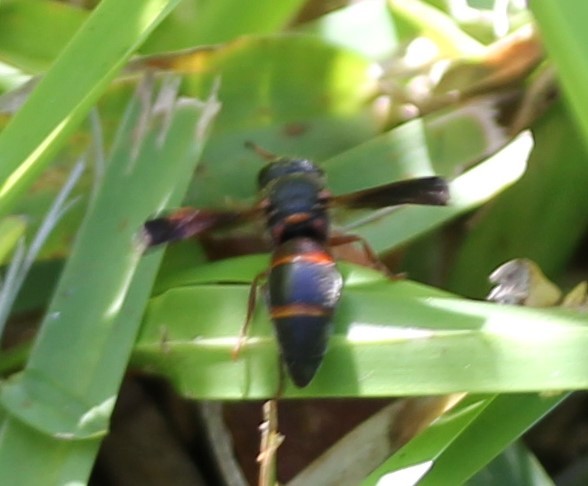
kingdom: Animalia
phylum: Arthropoda
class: Insecta
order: Hymenoptera
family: Eumenidae
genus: Pachodynerus
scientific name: Pachodynerus erynnis
